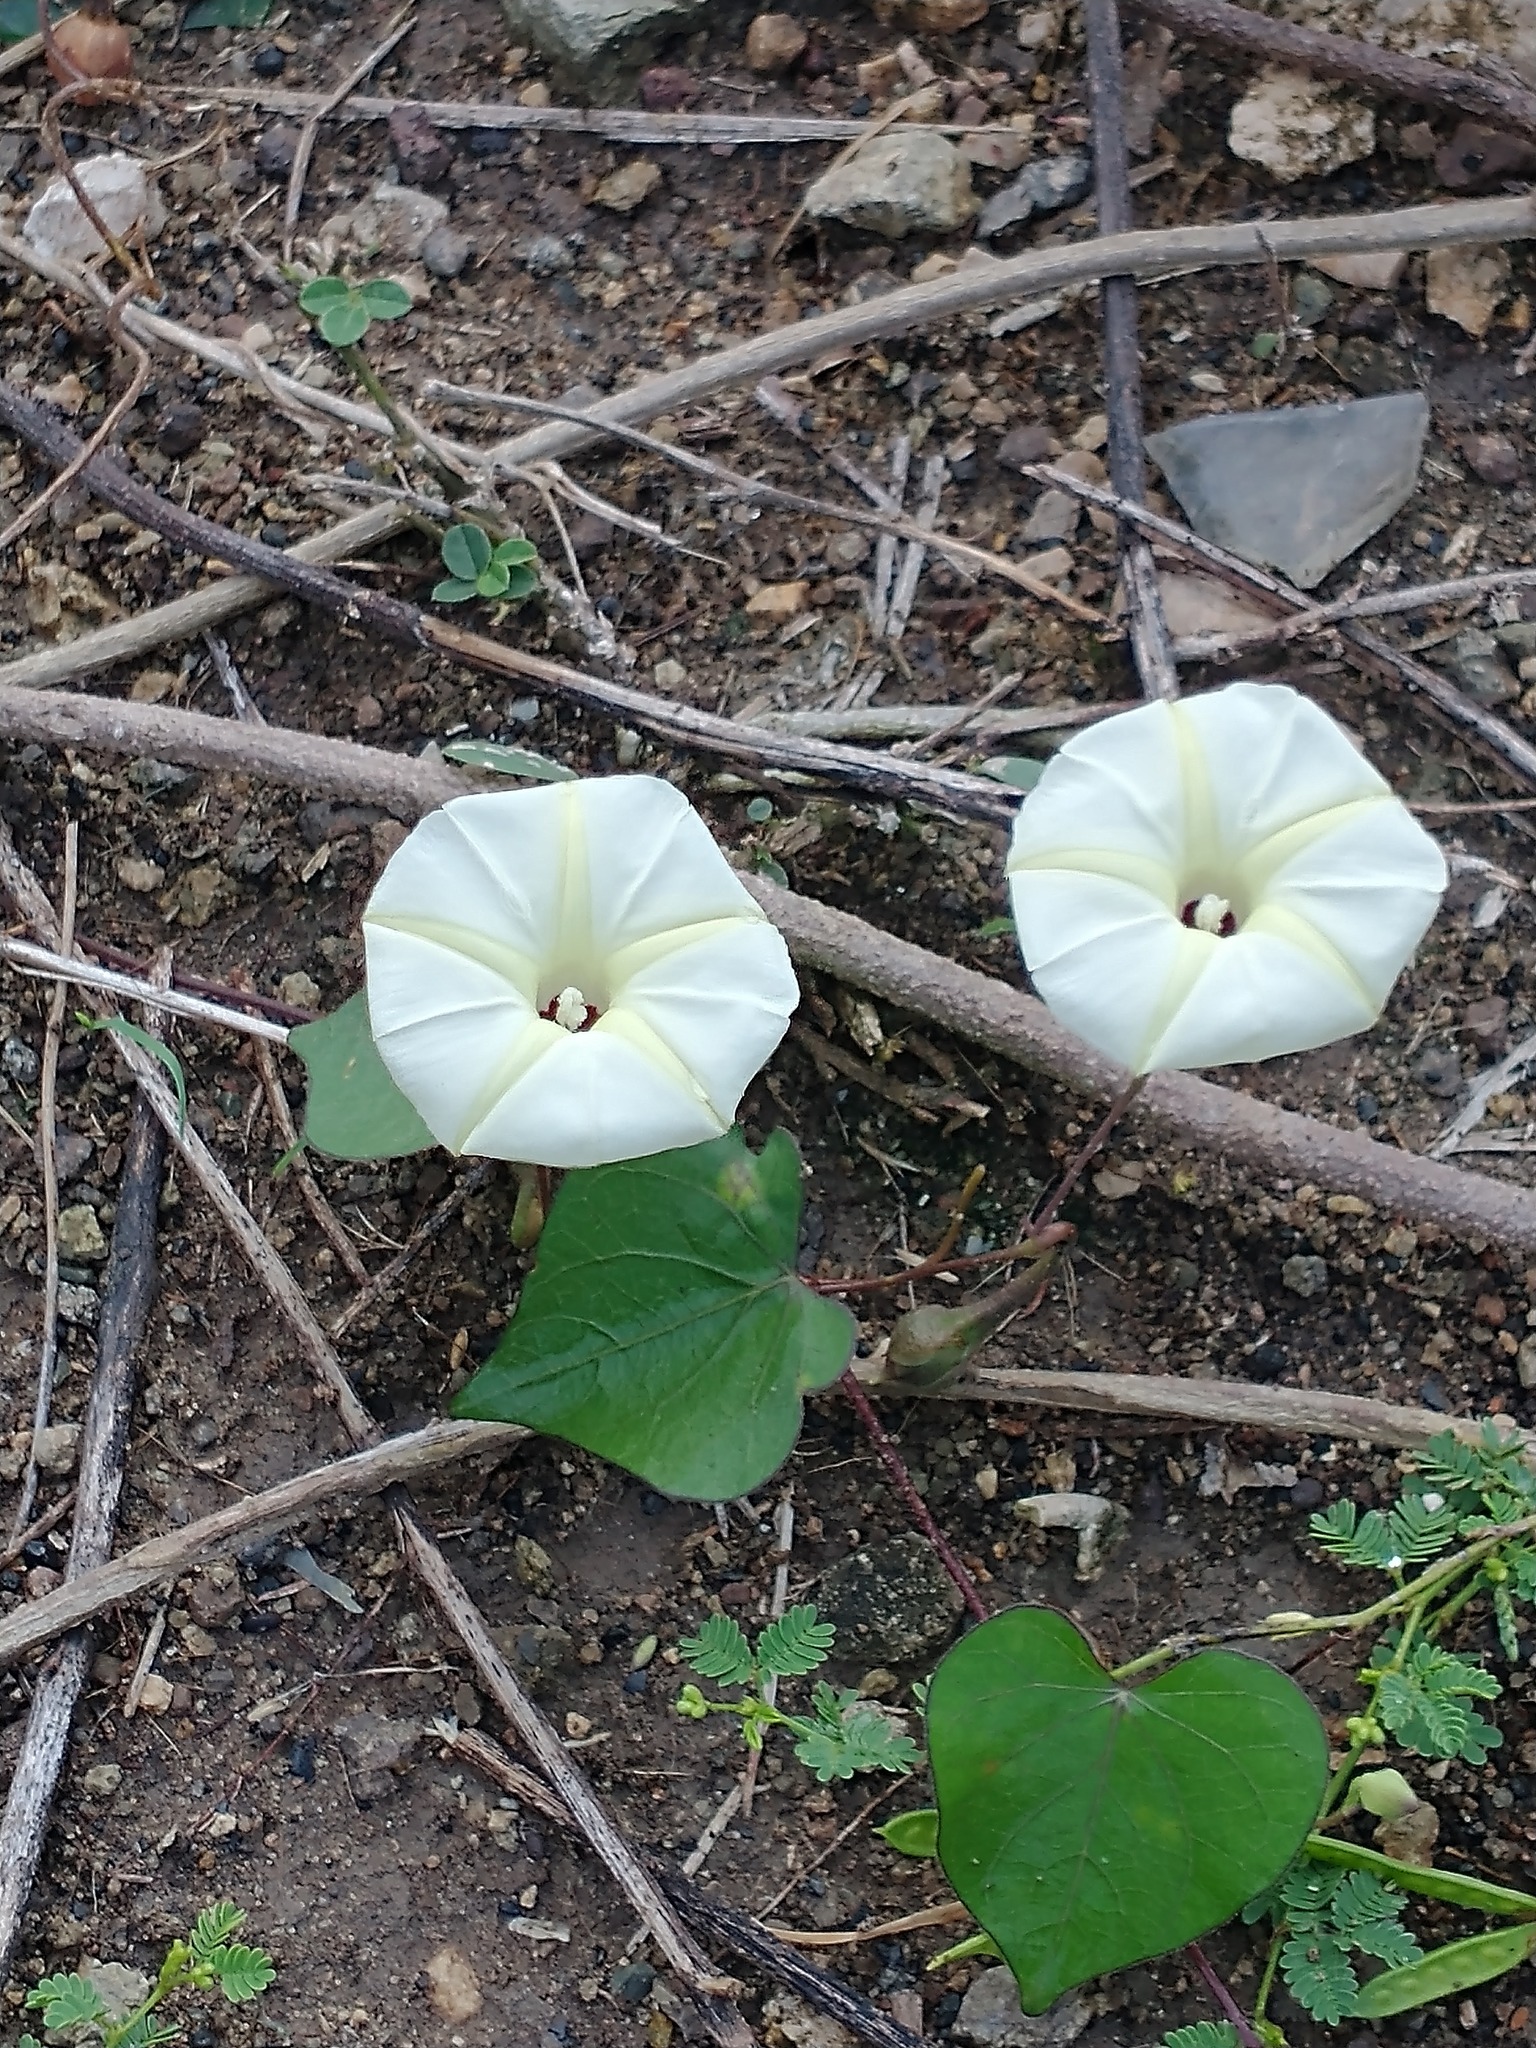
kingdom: Plantae
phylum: Tracheophyta
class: Magnoliopsida
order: Solanales
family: Convolvulaceae
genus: Ipomoea
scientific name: Ipomoea obscura
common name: Obscure morning-glory
